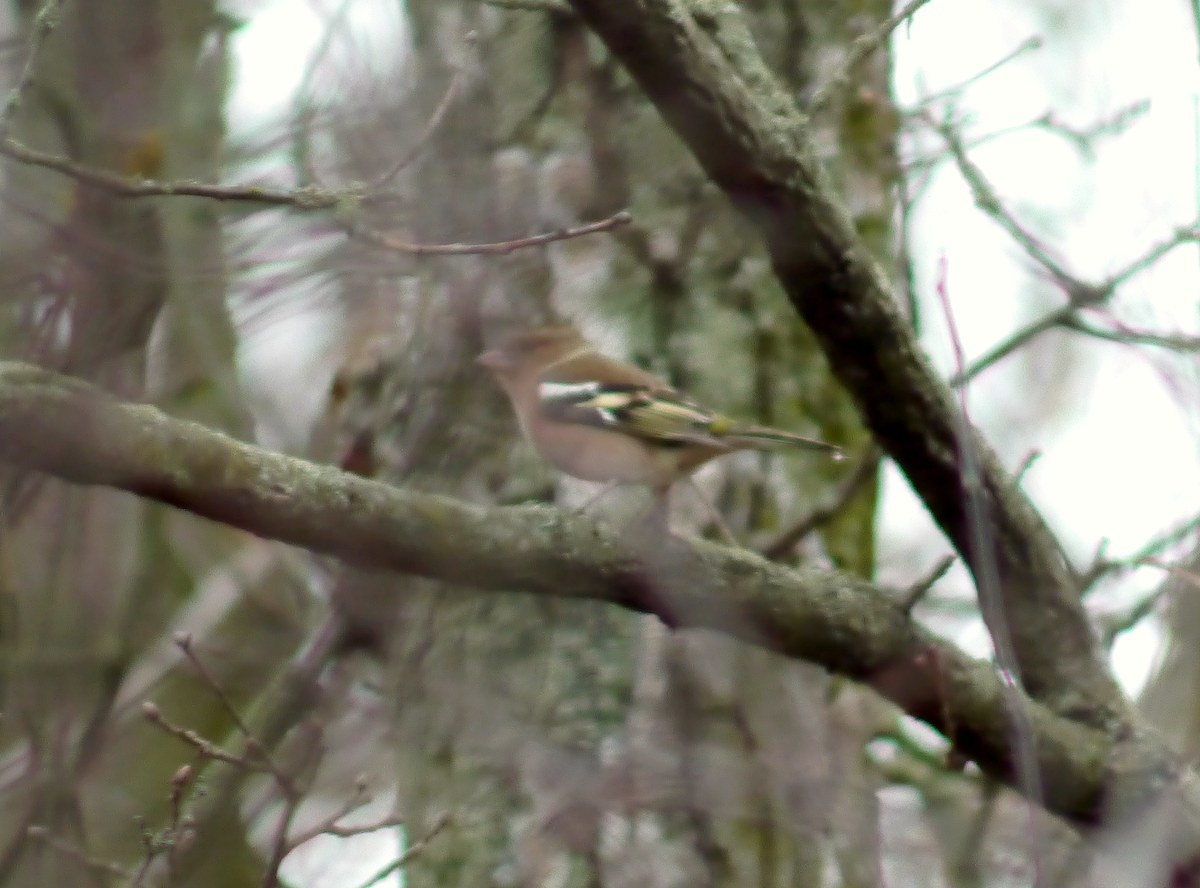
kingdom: Animalia
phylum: Chordata
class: Aves
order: Passeriformes
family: Fringillidae
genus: Fringilla
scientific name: Fringilla coelebs
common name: Common chaffinch
